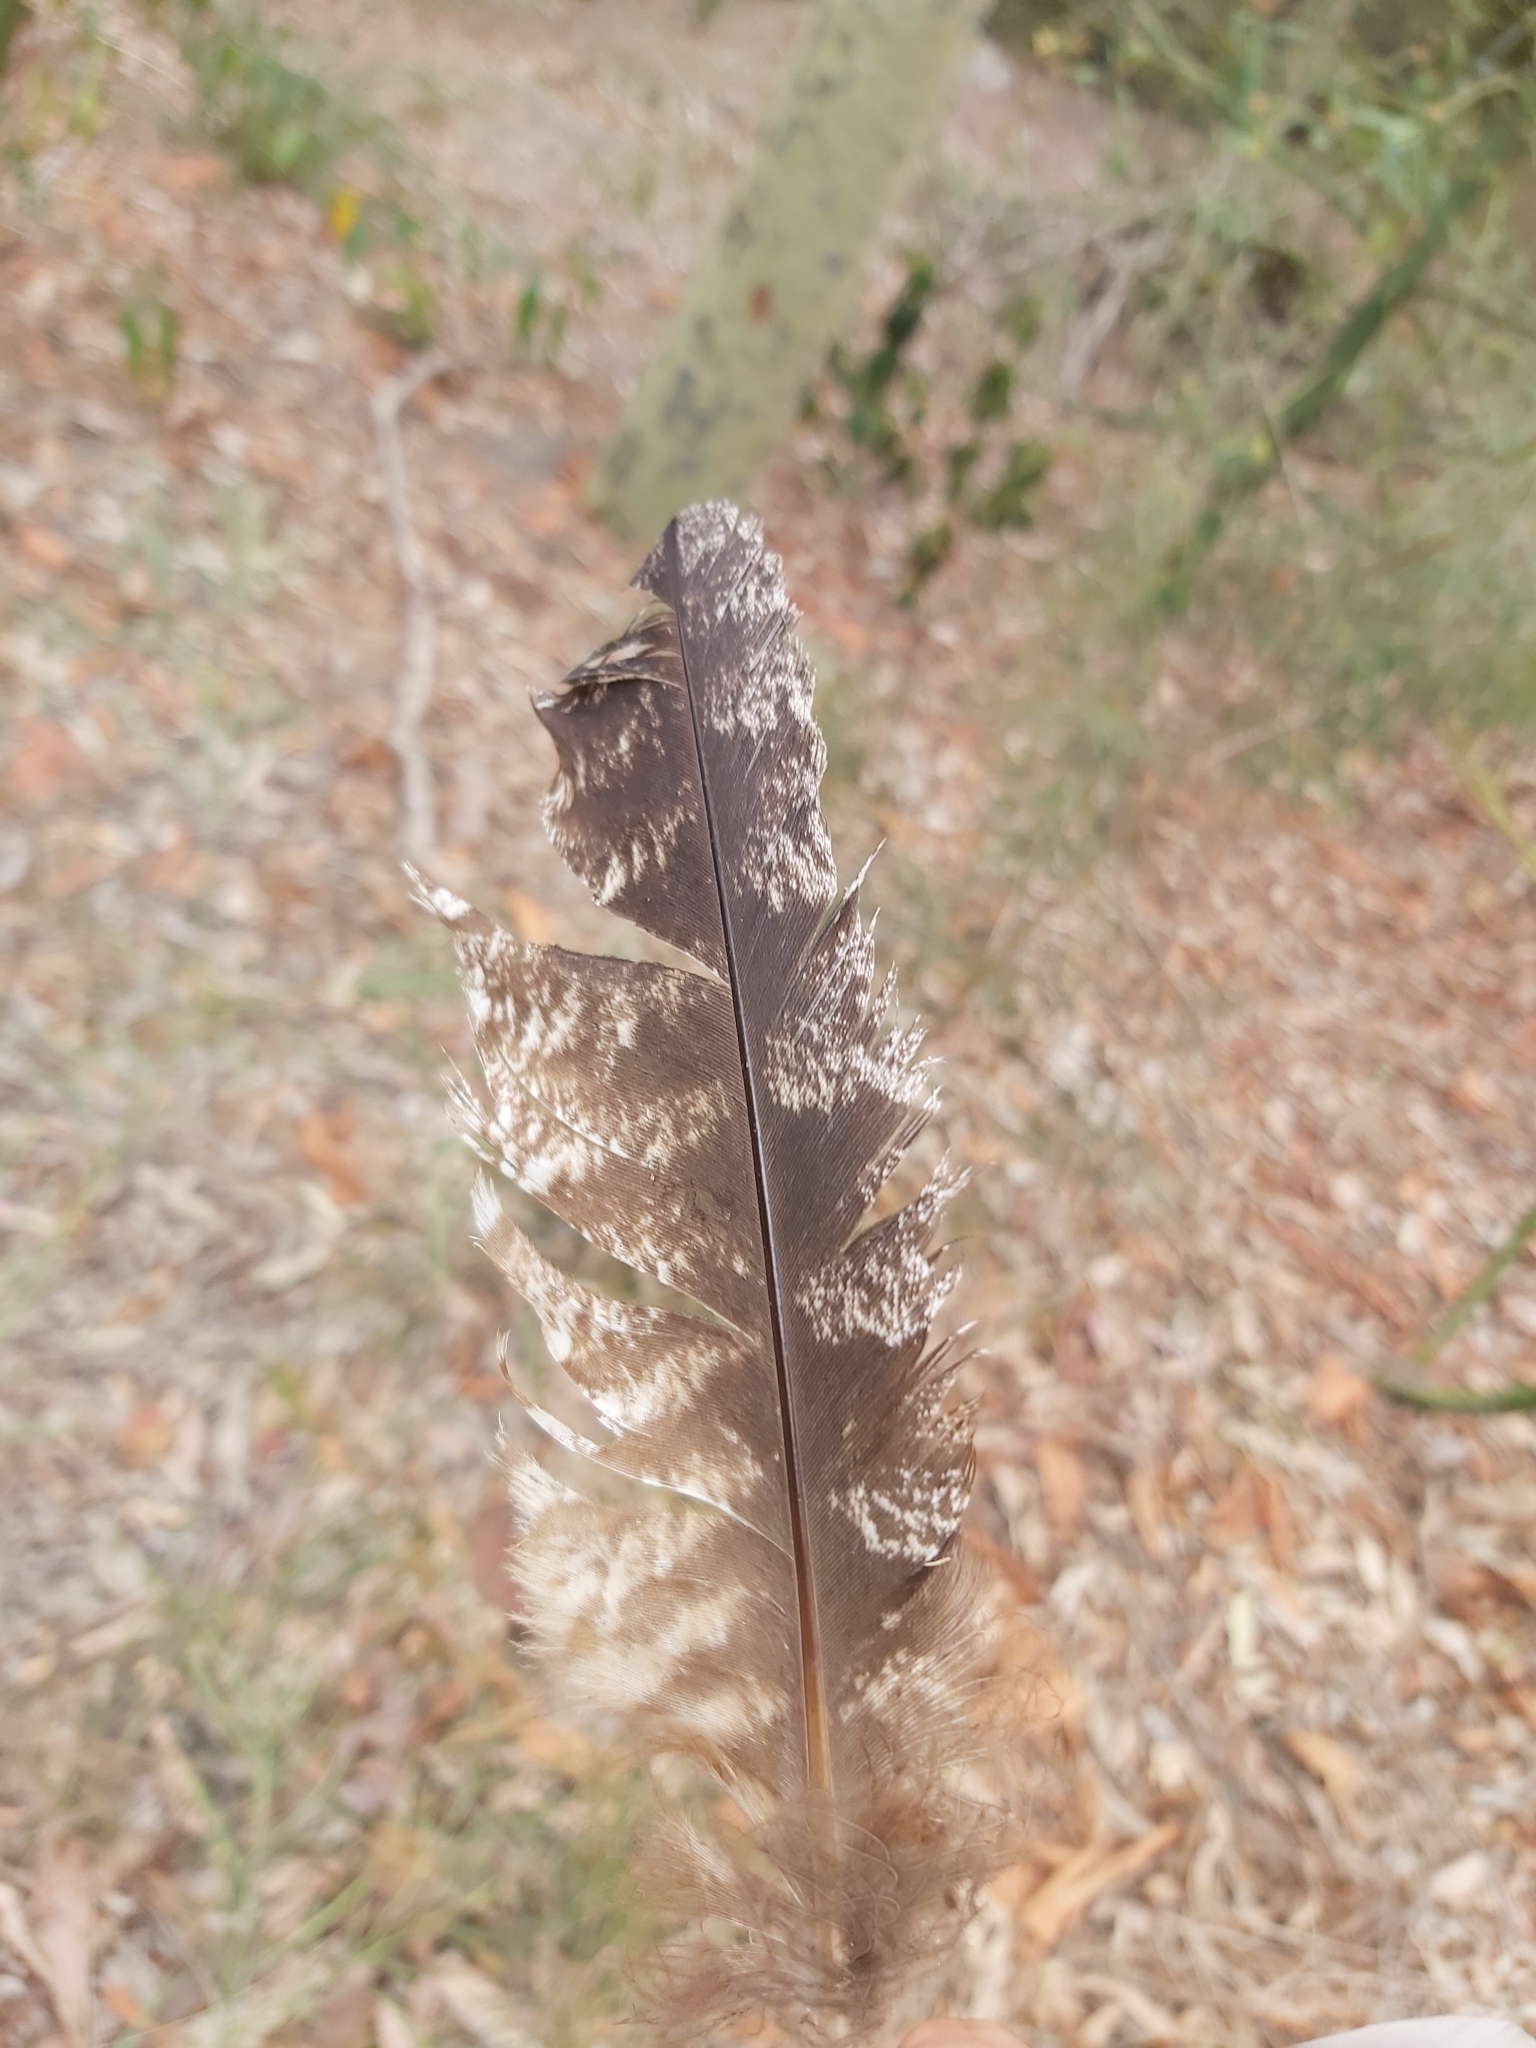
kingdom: Animalia
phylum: Chordata
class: Aves
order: Caprimulgiformes
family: Podargidae
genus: Podargus
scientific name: Podargus strigoides
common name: Tawny frogmouth
